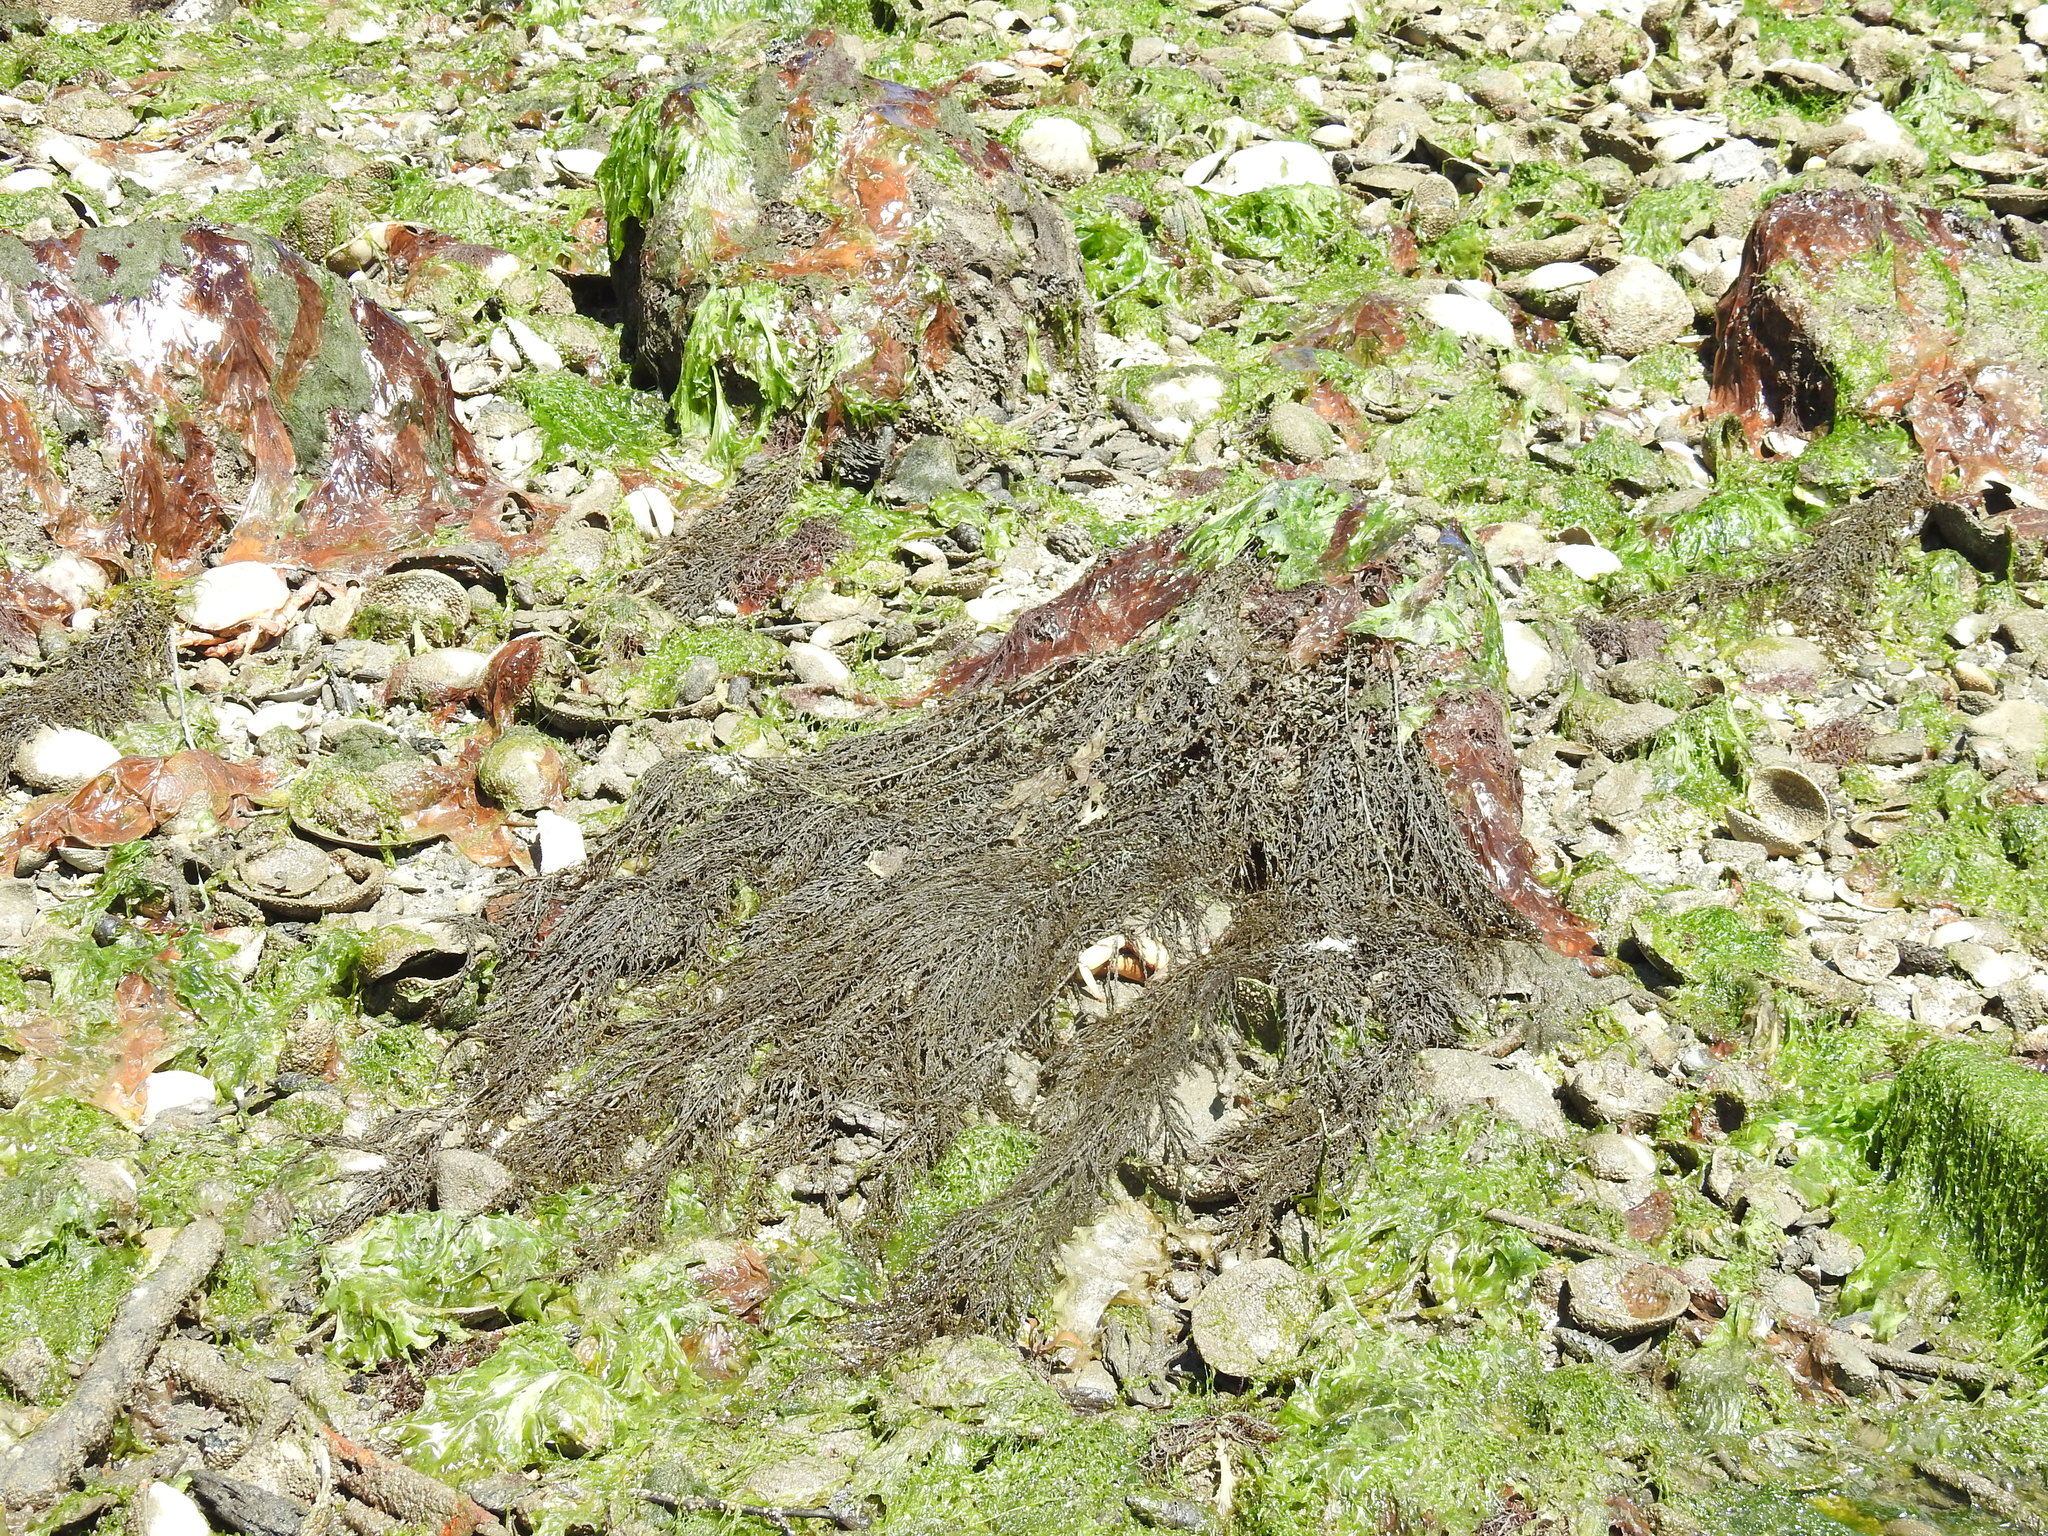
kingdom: Chromista
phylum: Ochrophyta
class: Phaeophyceae
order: Fucales
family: Sargassaceae
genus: Sargassum
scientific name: Sargassum muticum
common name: Japweed
